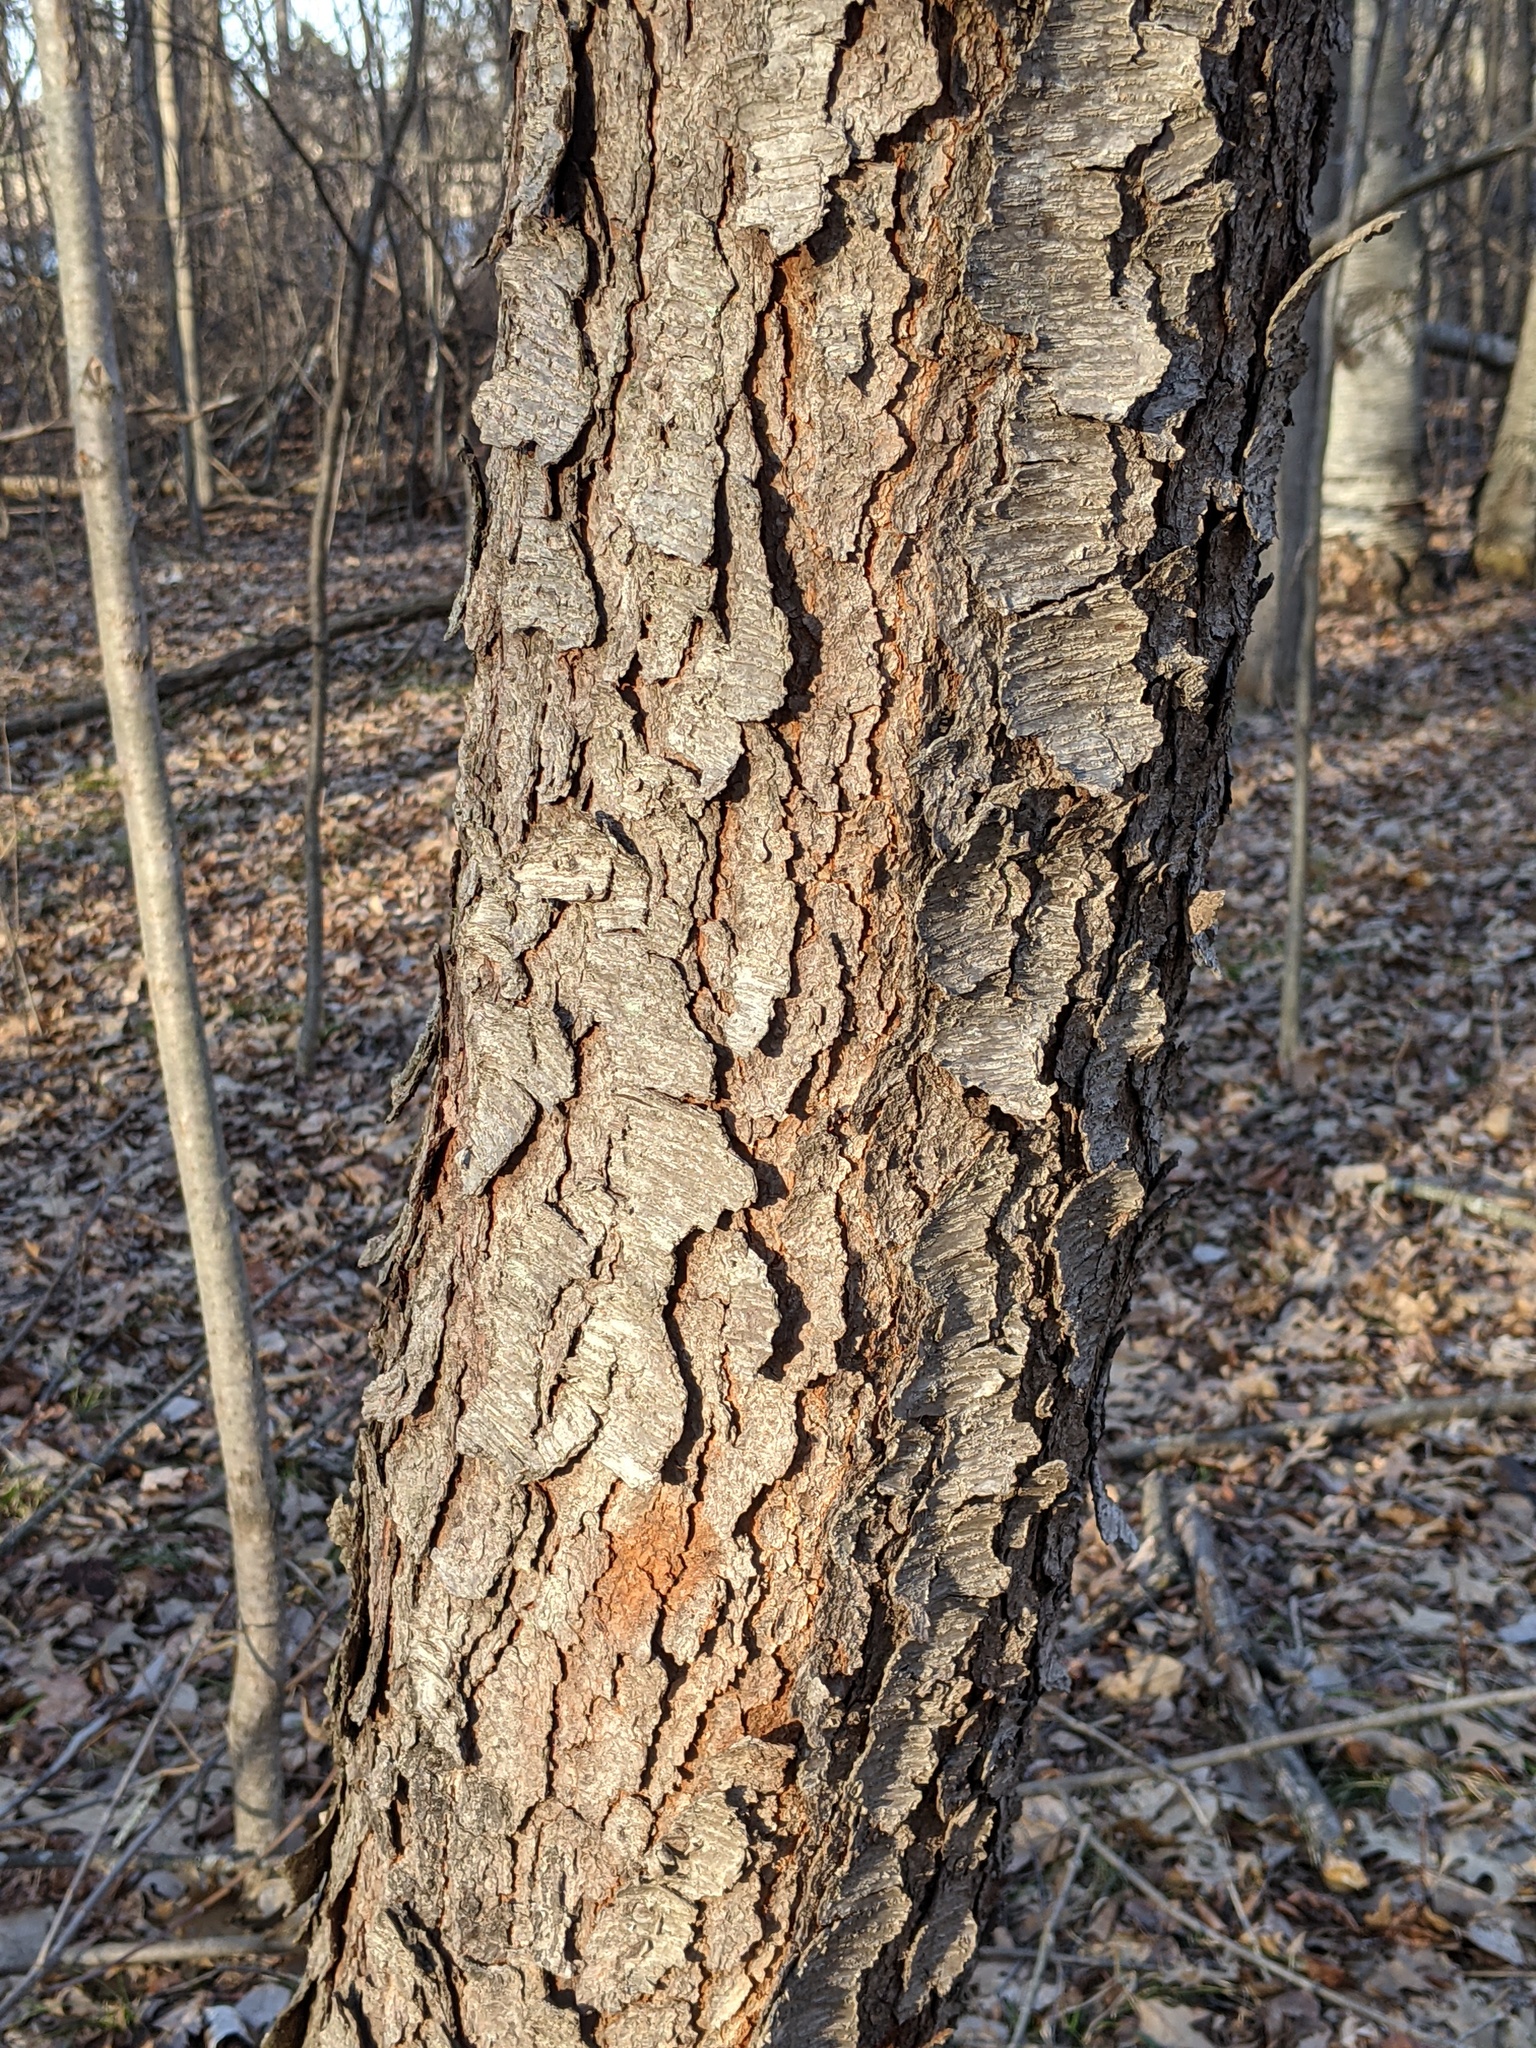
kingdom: Plantae
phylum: Tracheophyta
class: Magnoliopsida
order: Rosales
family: Rosaceae
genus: Prunus
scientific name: Prunus serotina
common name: Black cherry
